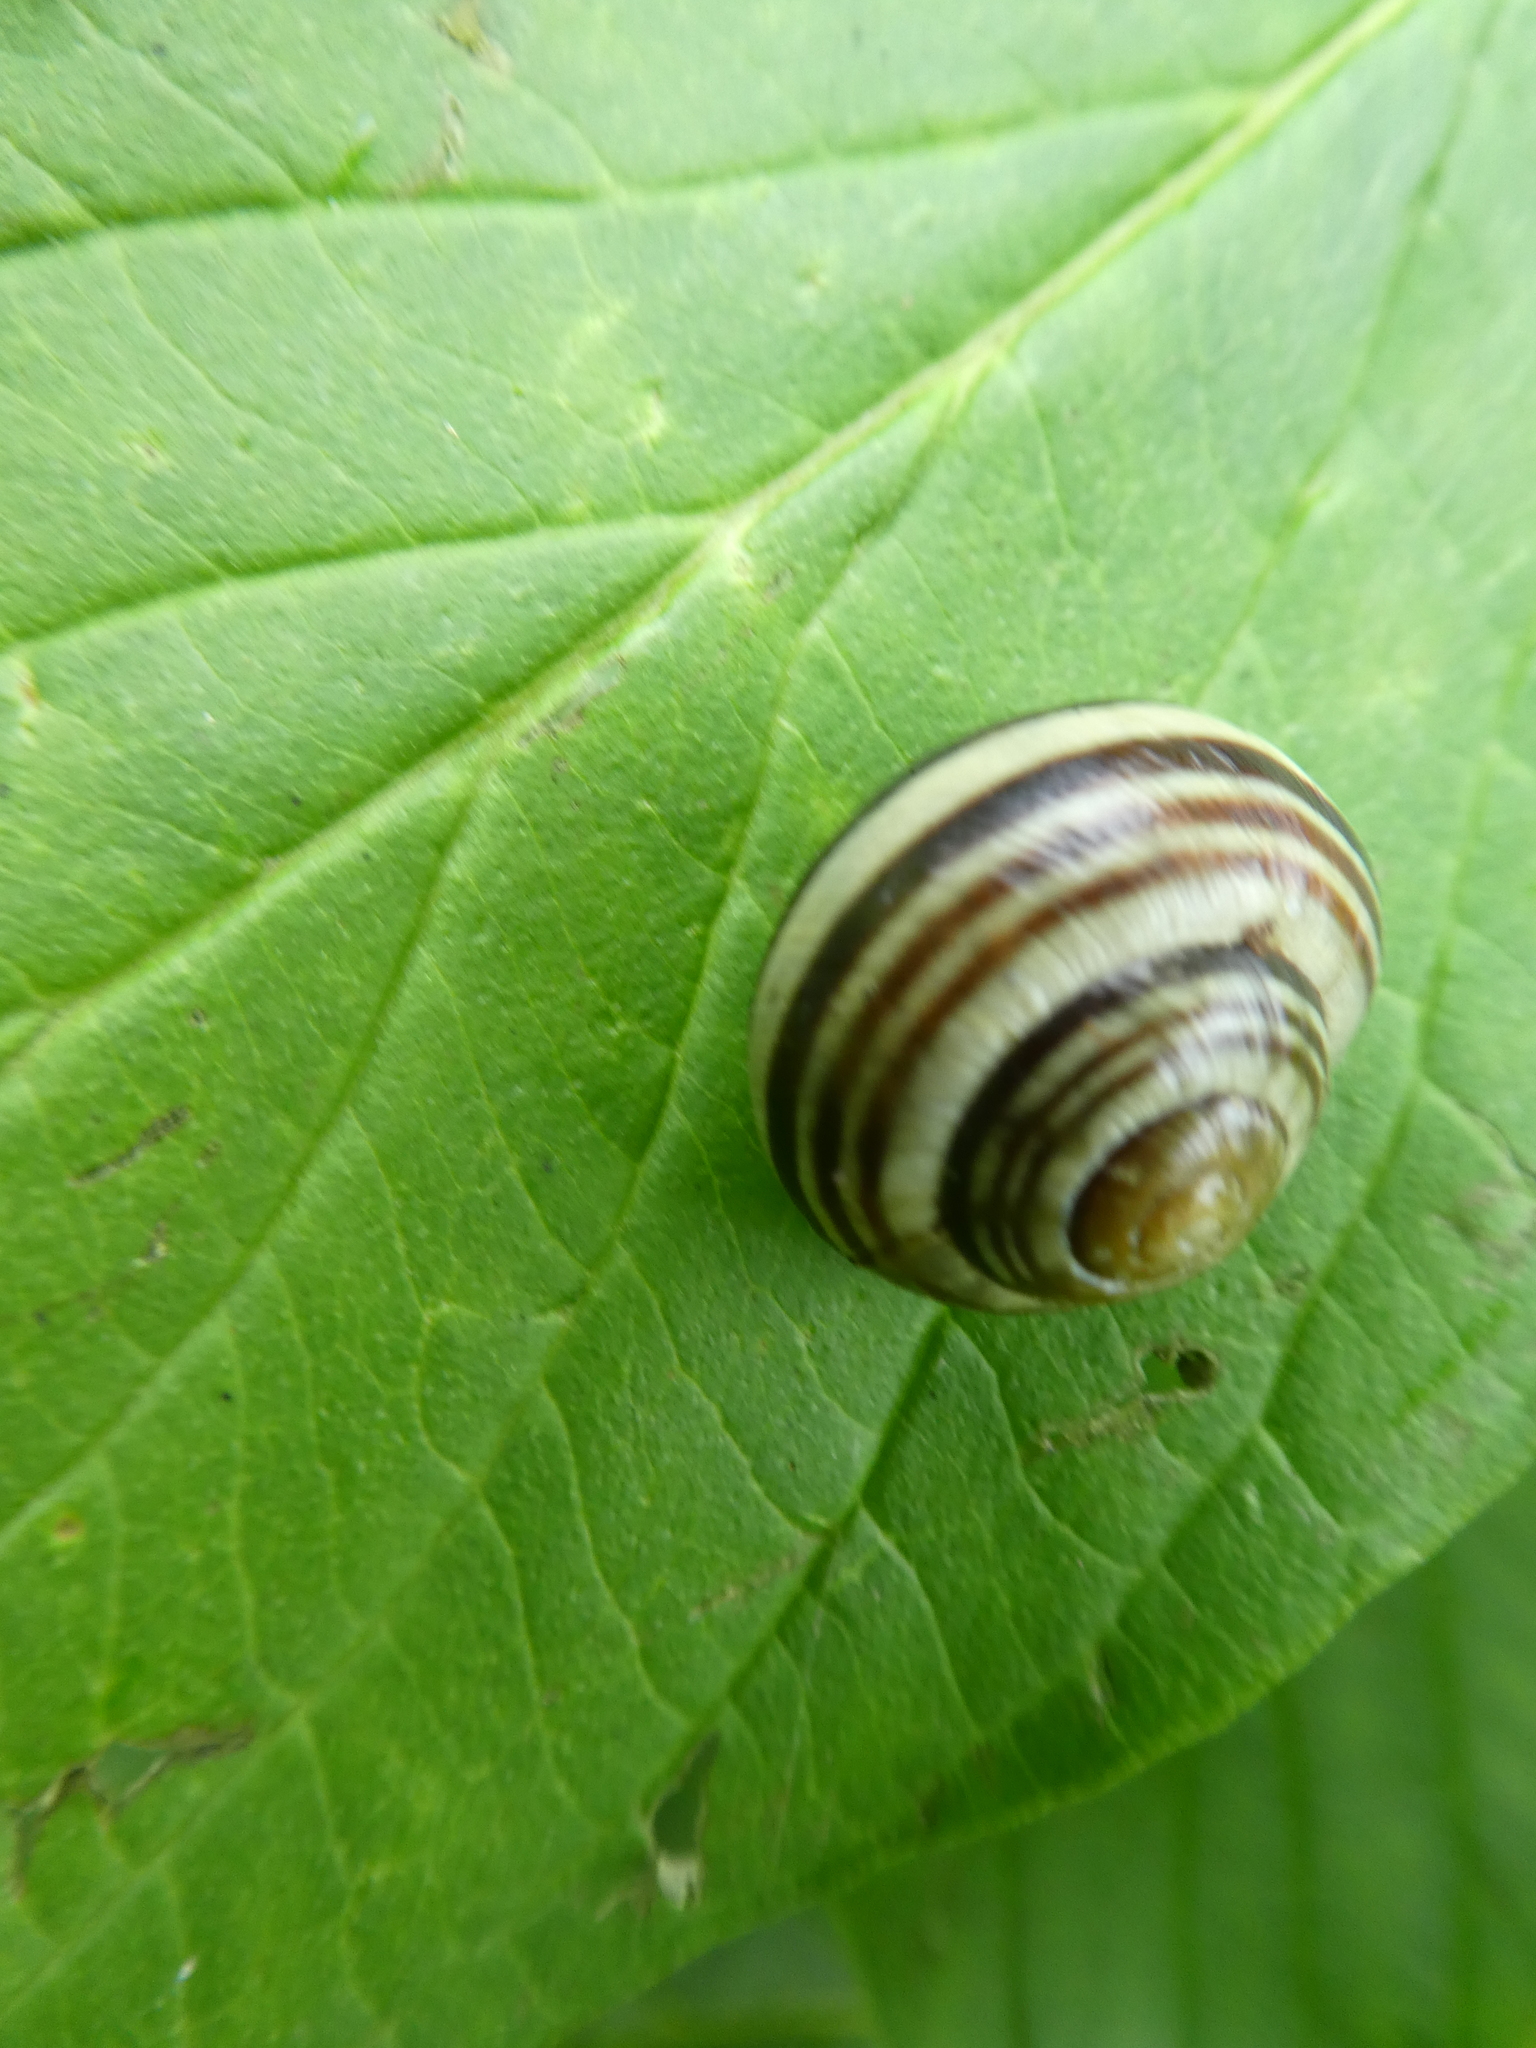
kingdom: Animalia
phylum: Mollusca
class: Gastropoda
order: Stylommatophora
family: Helicidae
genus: Cepaea
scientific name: Cepaea
